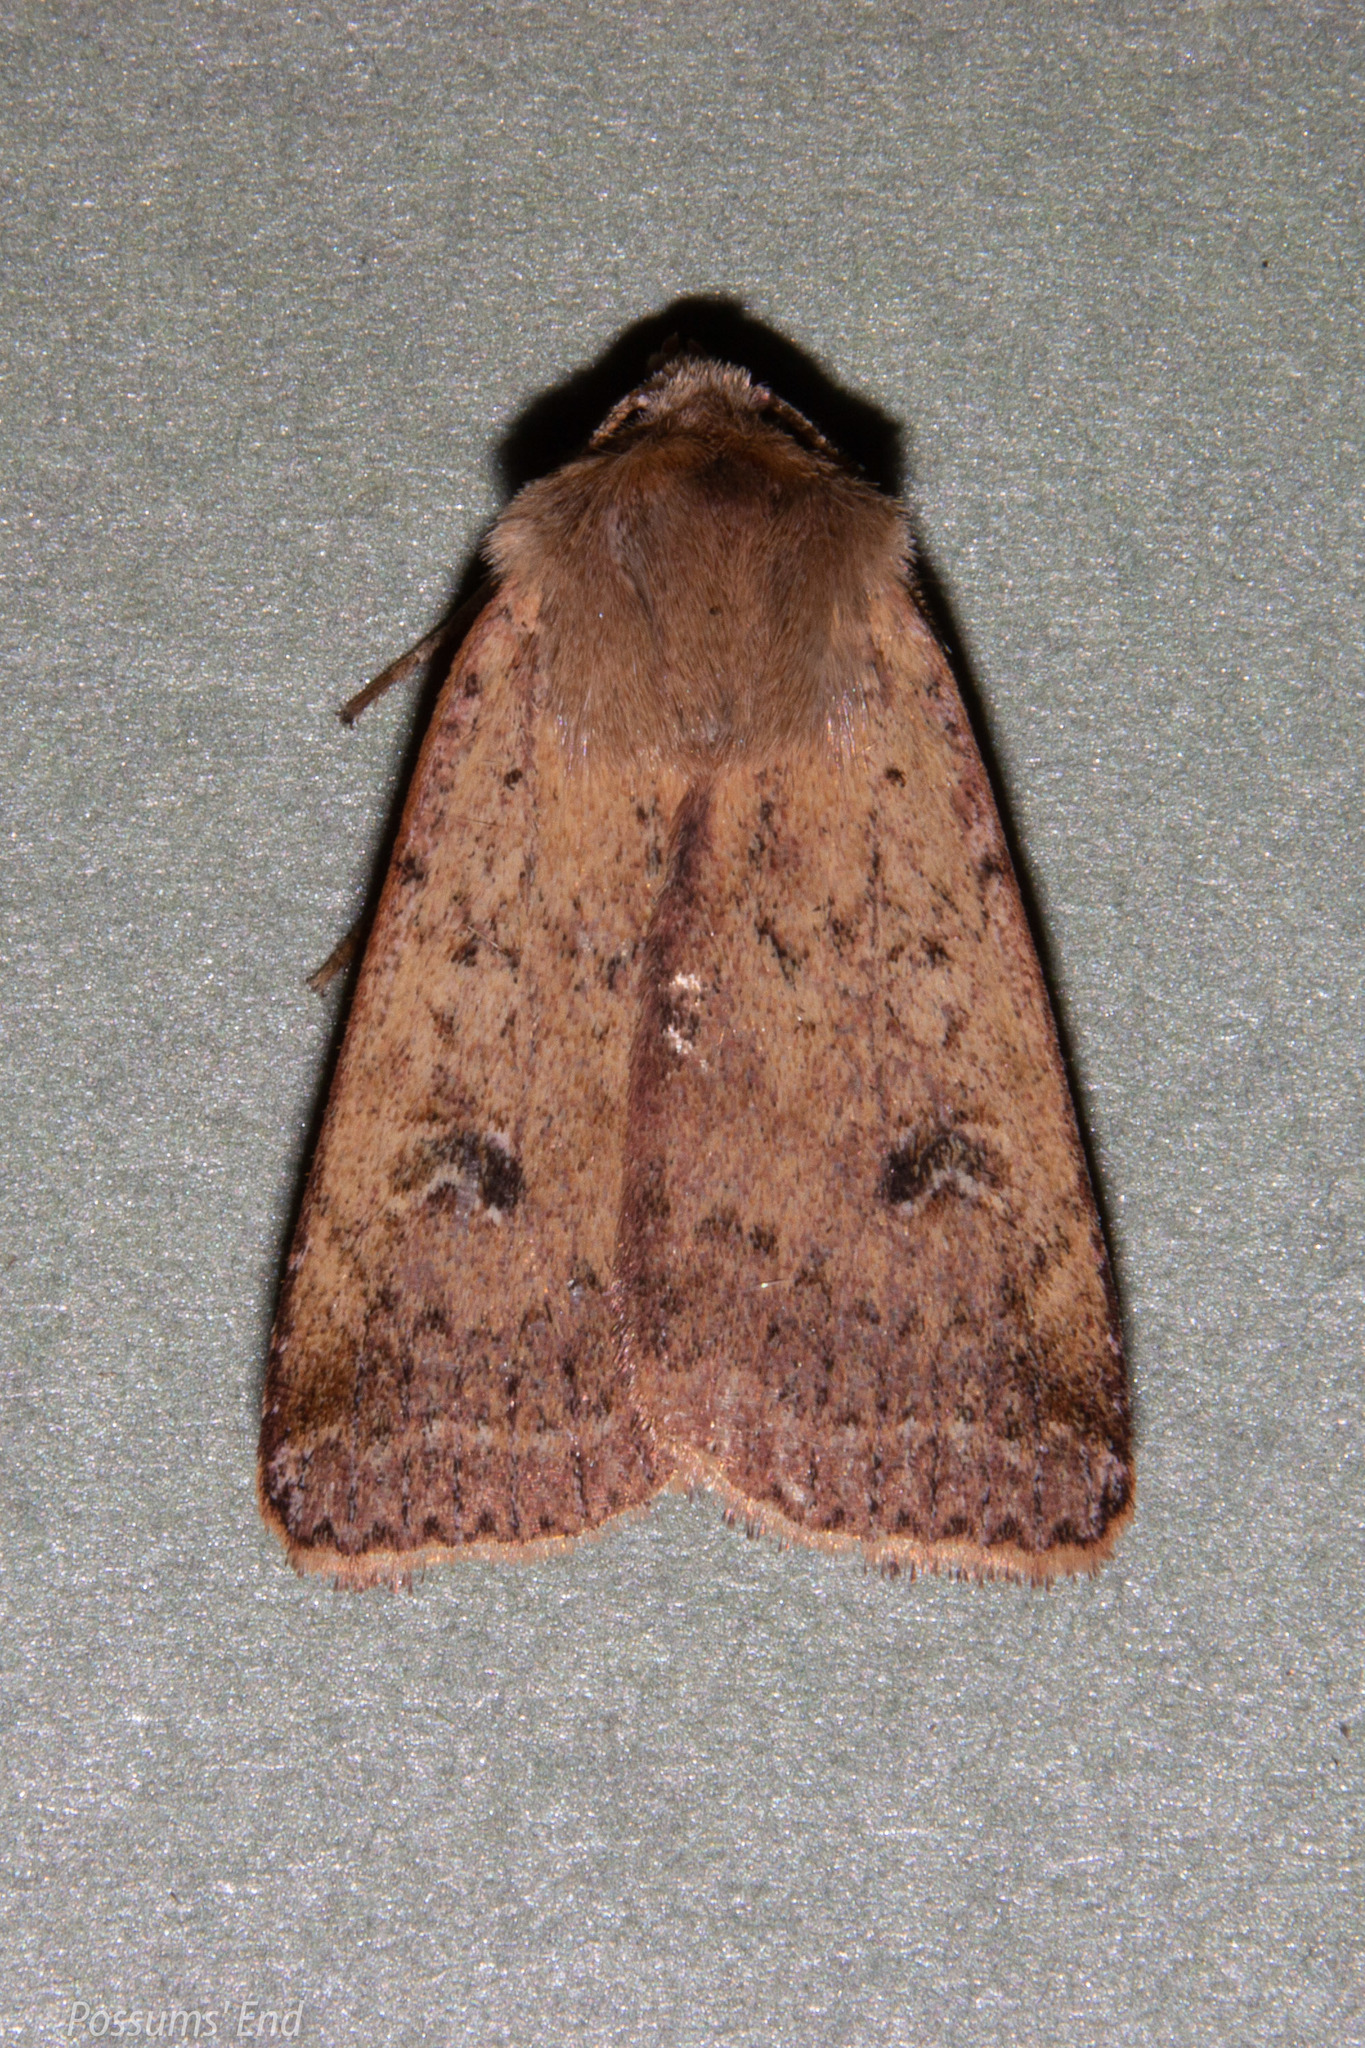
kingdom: Animalia
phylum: Arthropoda
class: Insecta
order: Lepidoptera
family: Noctuidae
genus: Diarsia
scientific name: Diarsia intermixta
